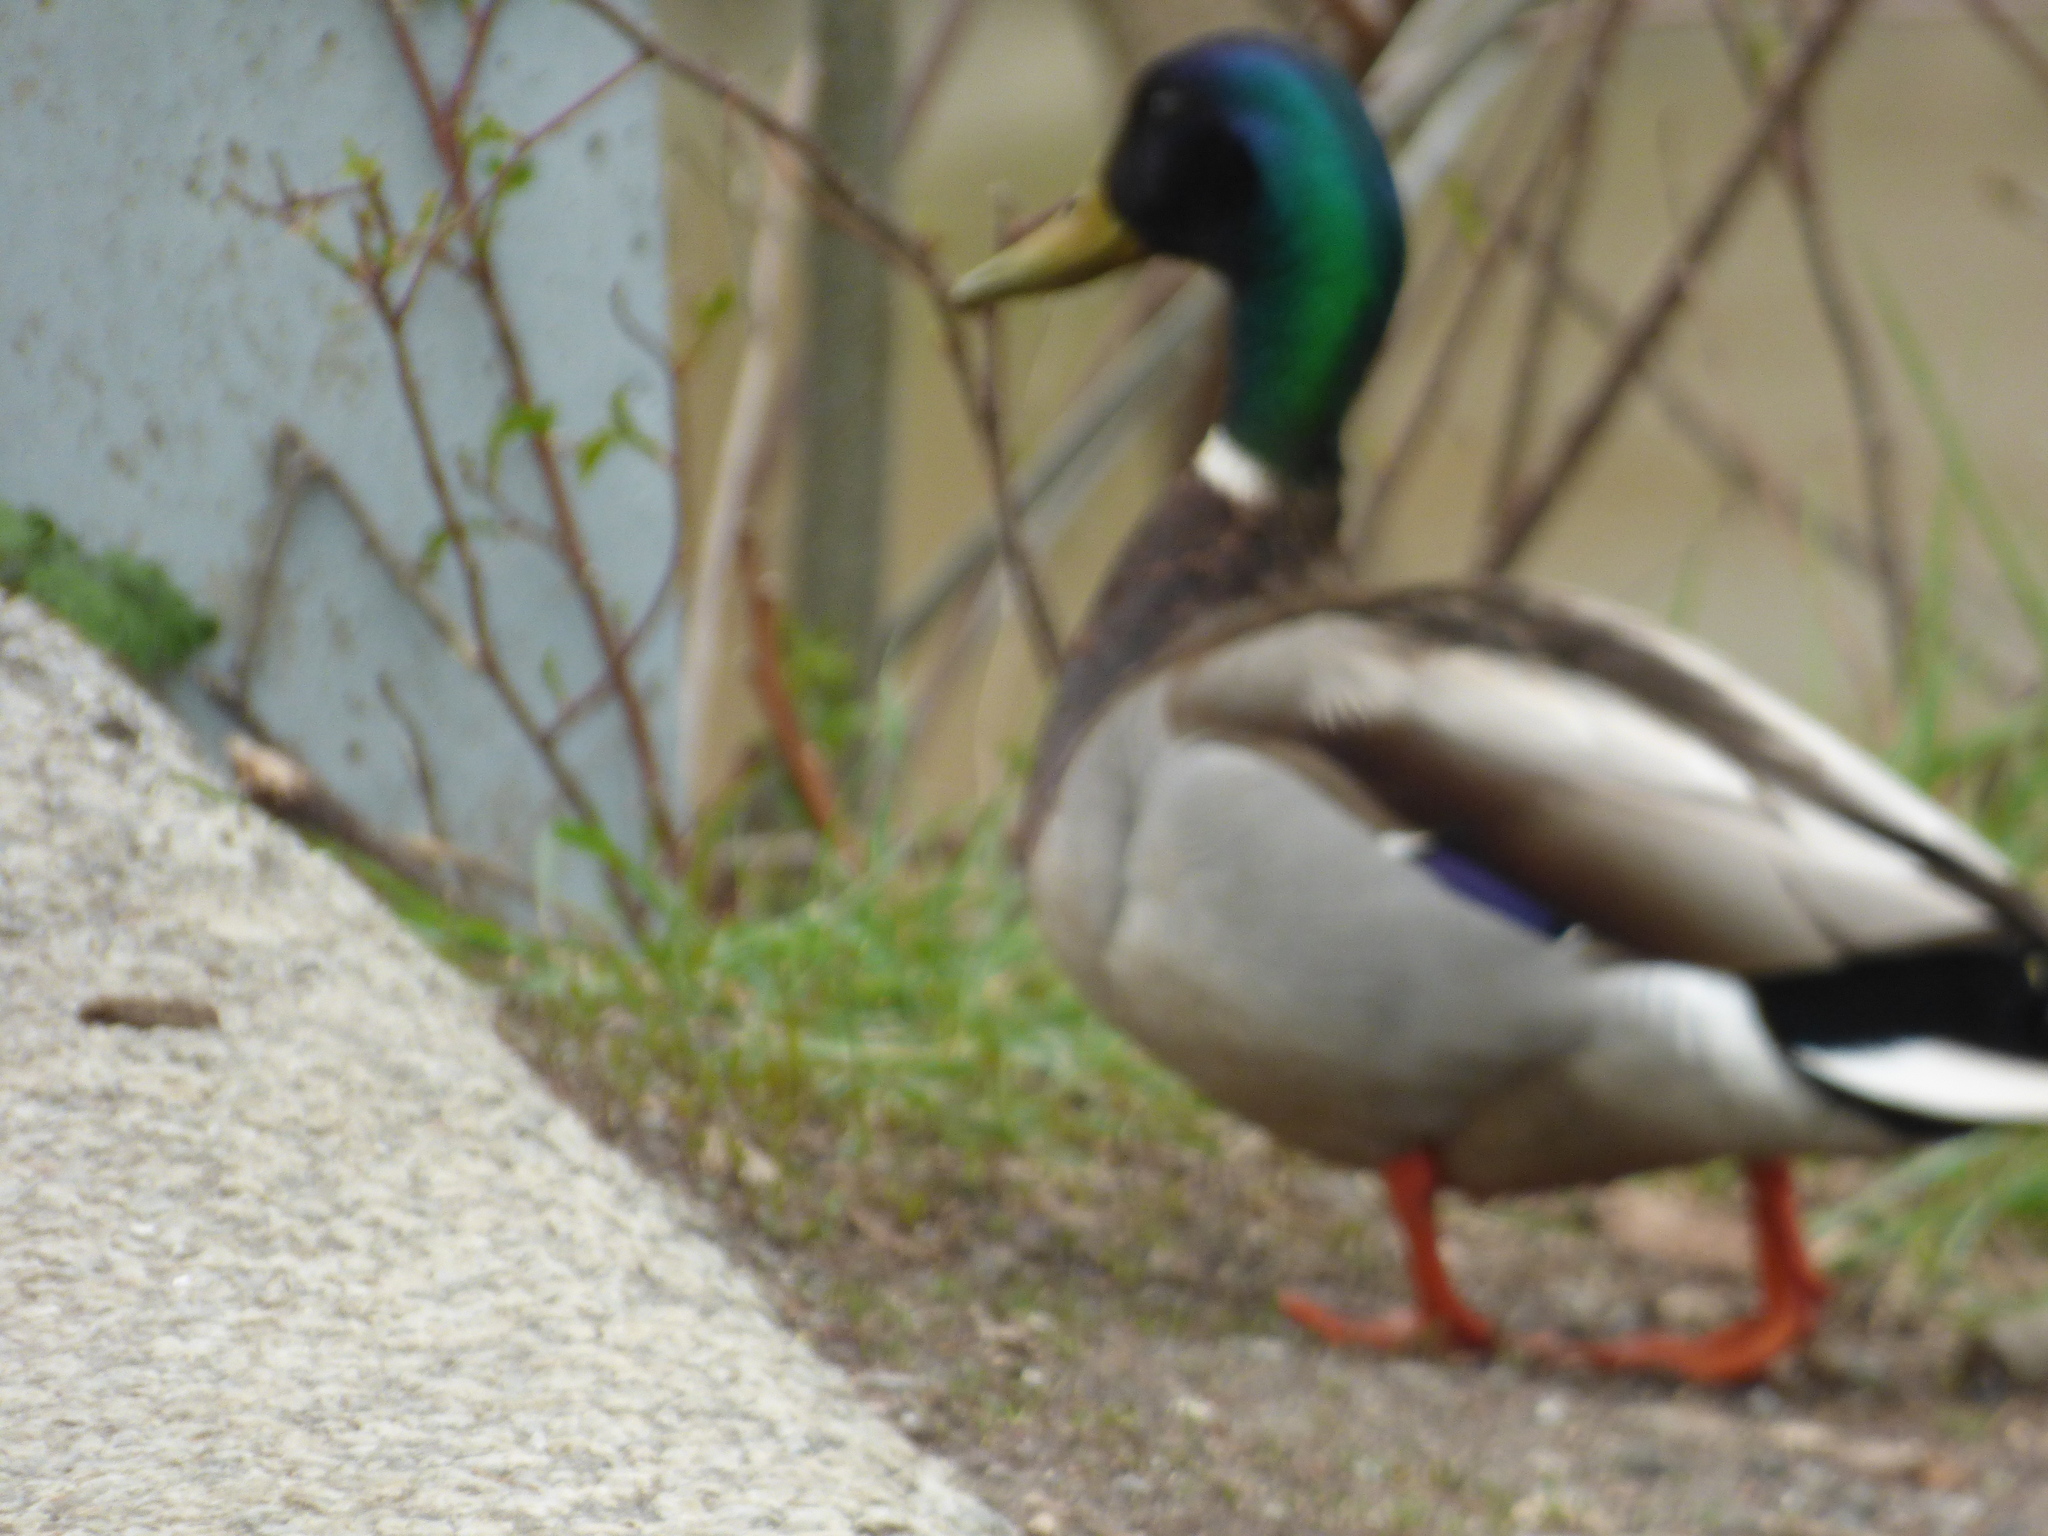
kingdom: Animalia
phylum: Chordata
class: Aves
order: Anseriformes
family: Anatidae
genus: Anas
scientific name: Anas platyrhynchos
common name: Mallard
